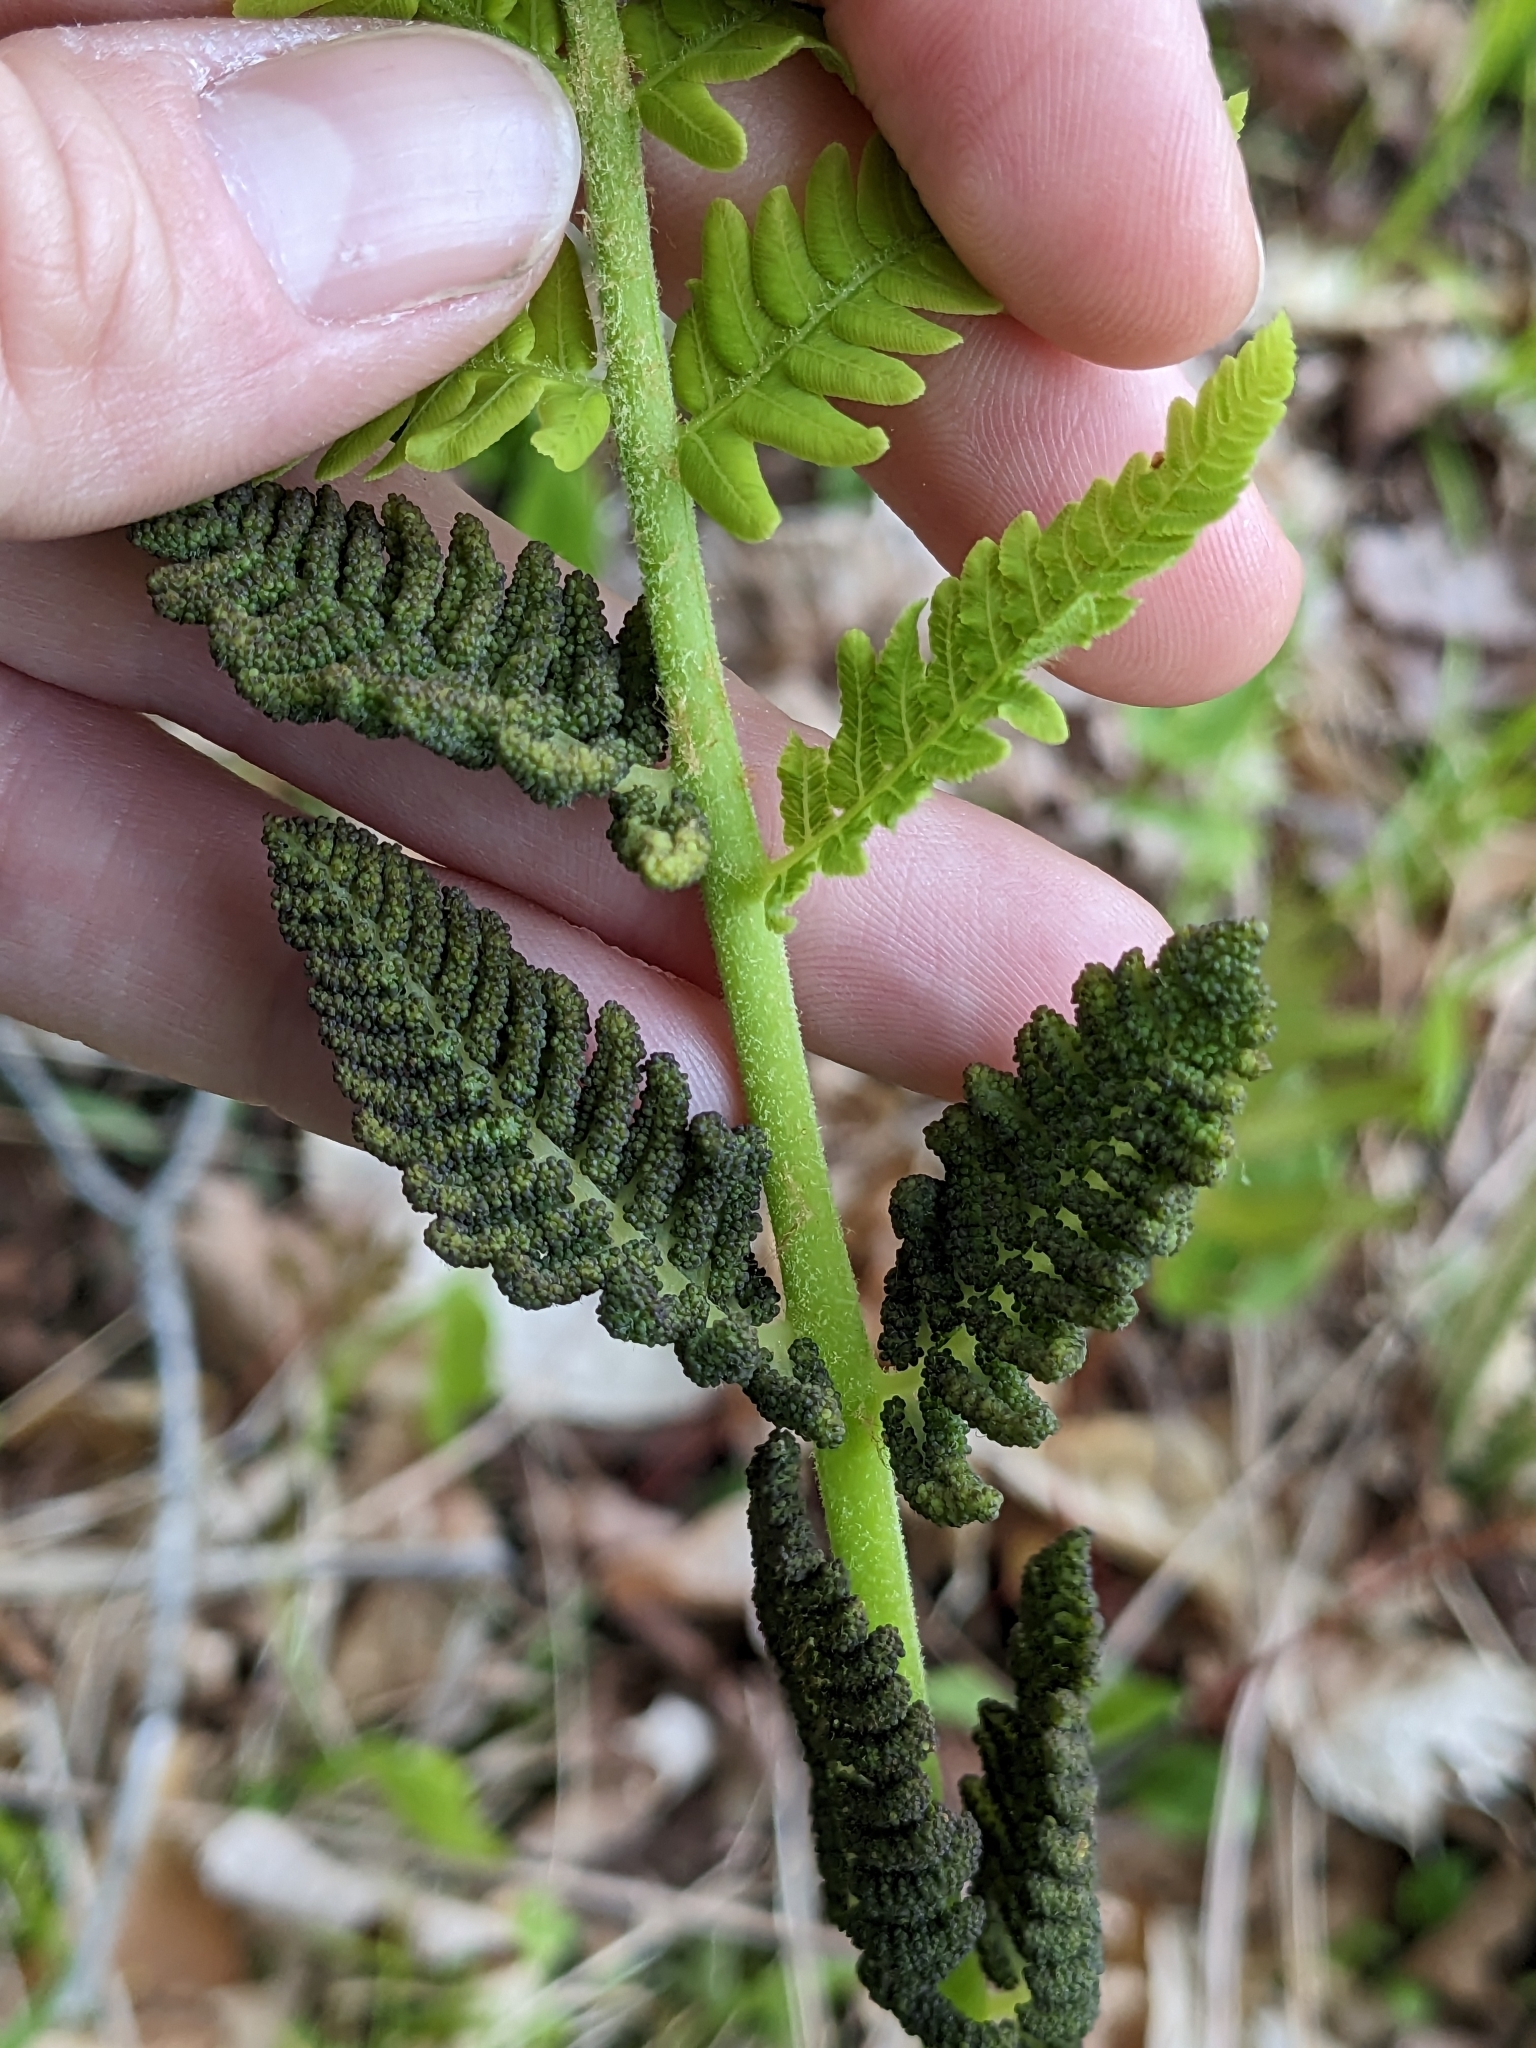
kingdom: Plantae
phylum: Tracheophyta
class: Polypodiopsida
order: Osmundales
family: Osmundaceae
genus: Claytosmunda
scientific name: Claytosmunda claytoniana
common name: Clayton's fern
